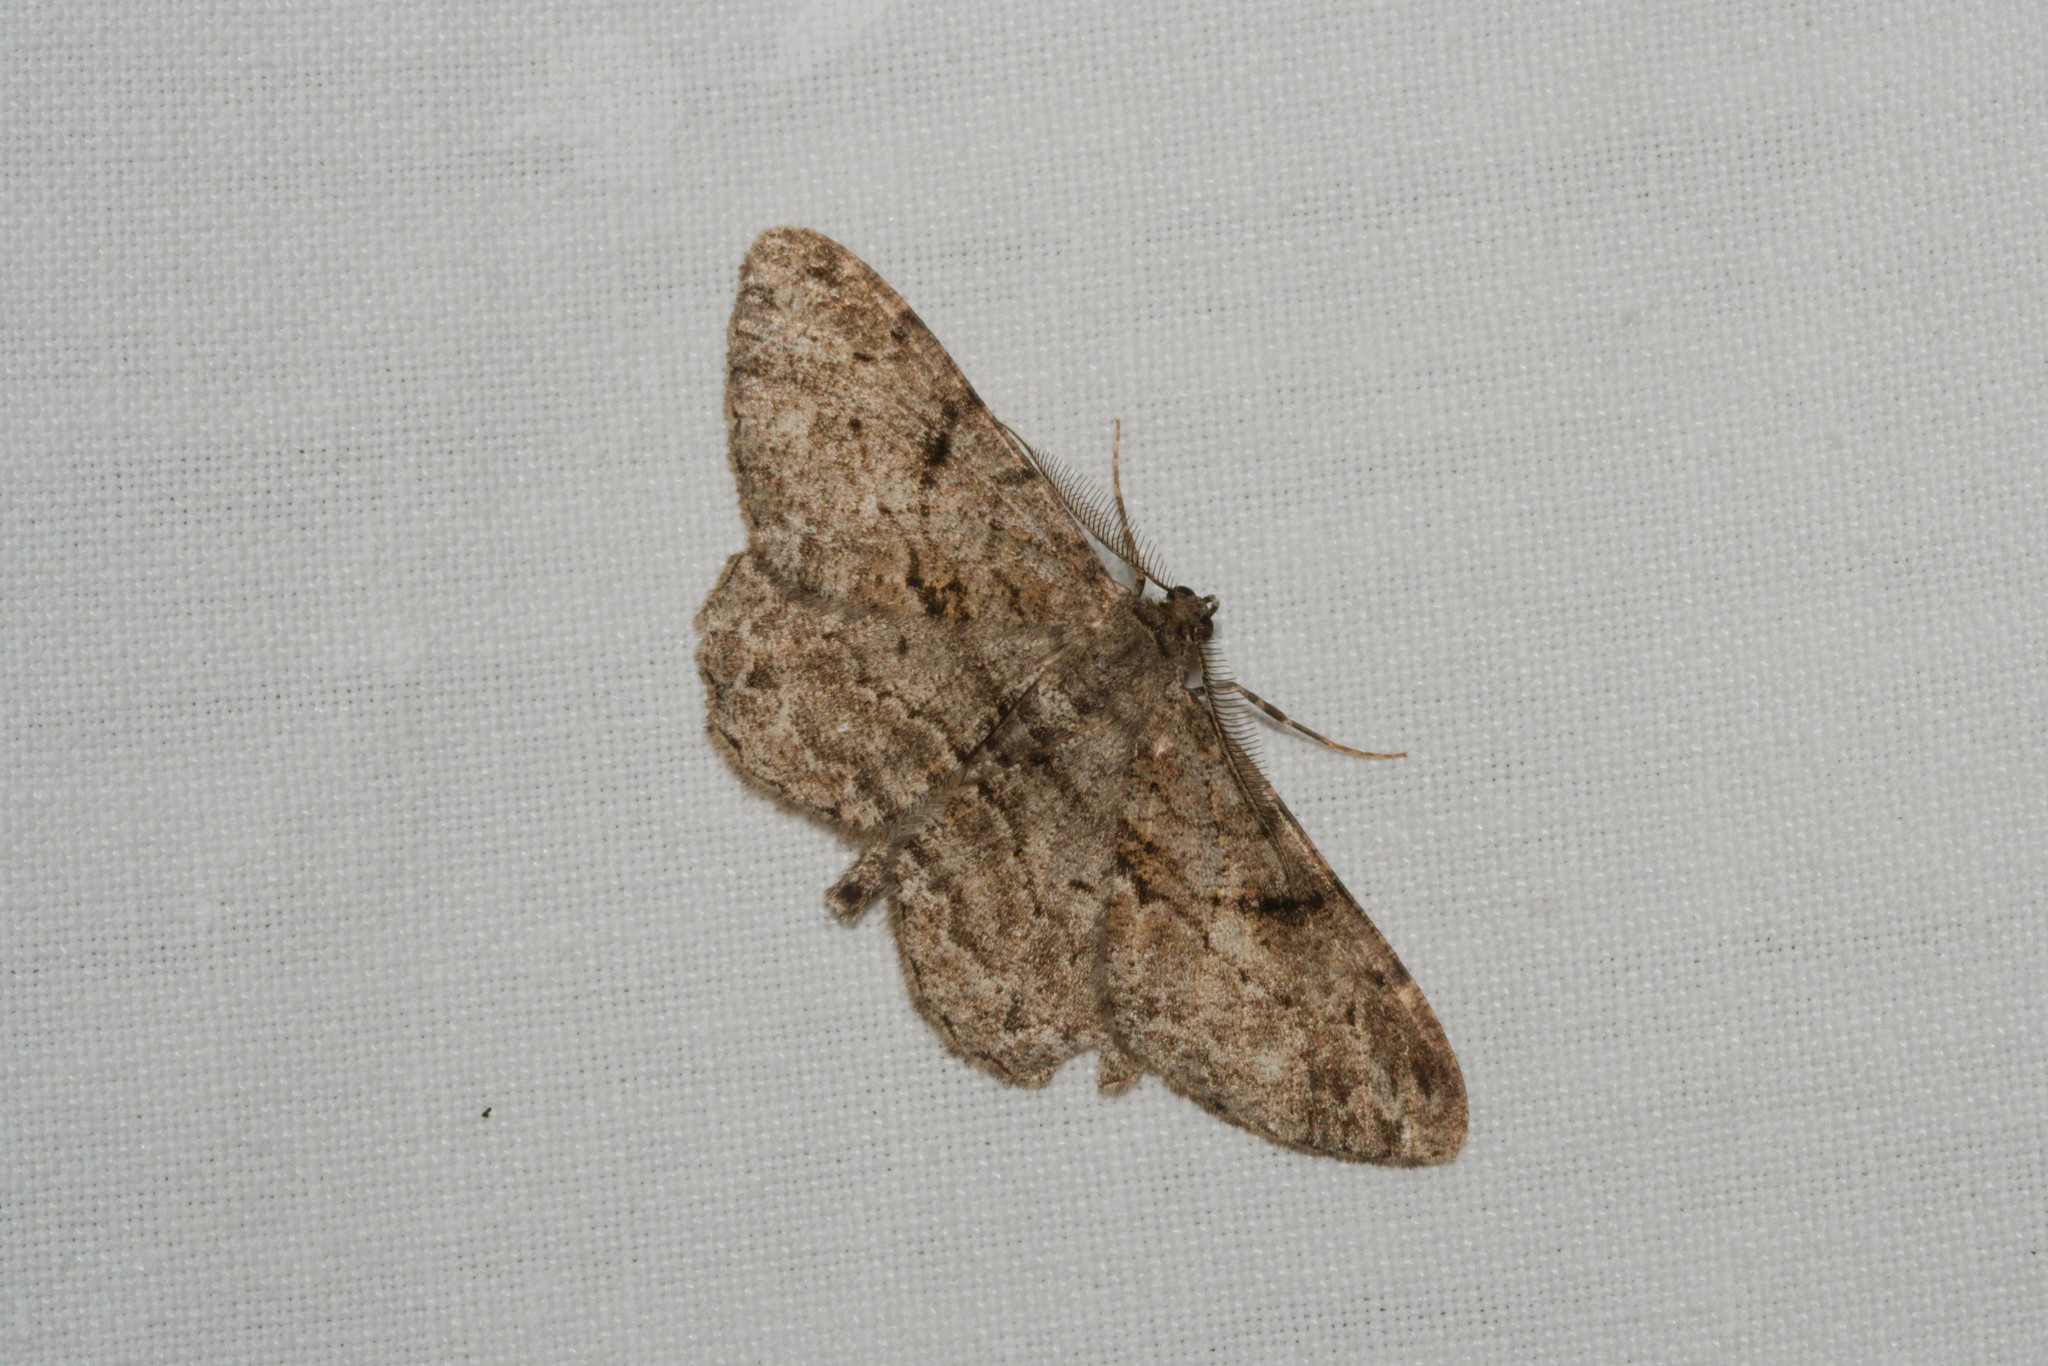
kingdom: Animalia
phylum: Arthropoda
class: Insecta
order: Lepidoptera
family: Geometridae
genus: Peribatodes
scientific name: Peribatodes rhomboidaria
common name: Willow beauty
